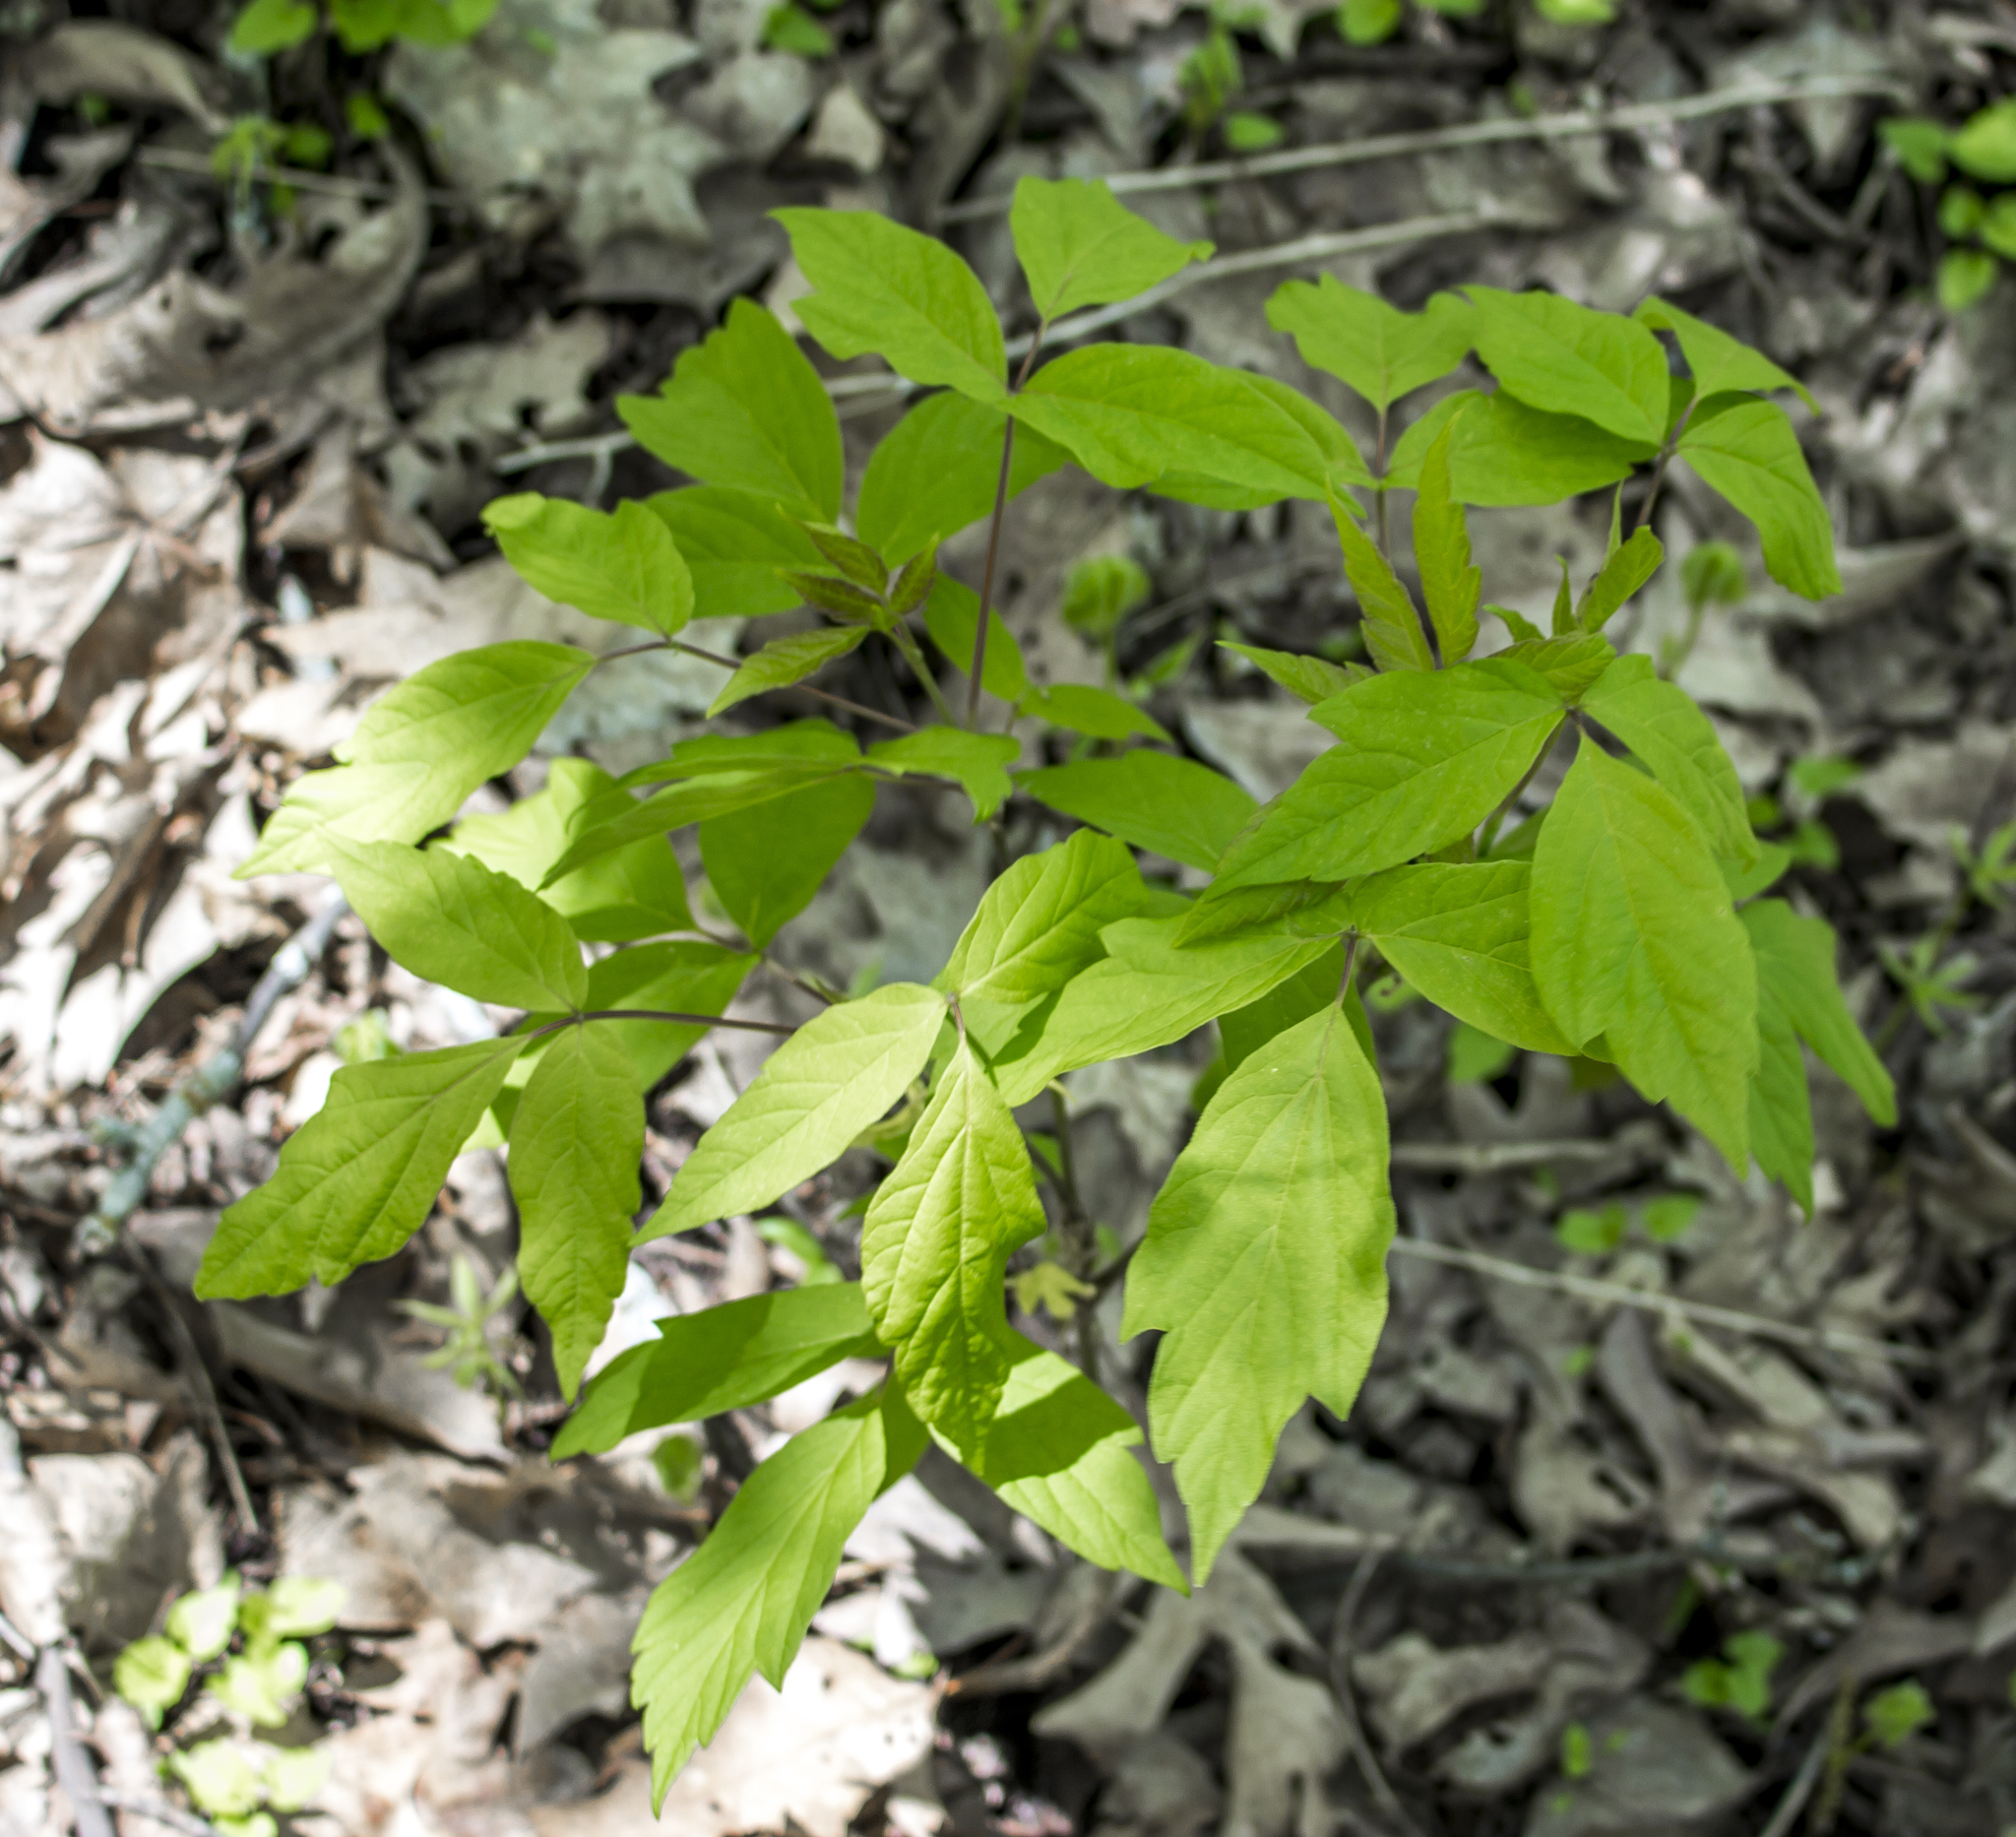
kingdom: Plantae
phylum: Tracheophyta
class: Magnoliopsida
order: Sapindales
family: Sapindaceae
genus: Acer
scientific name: Acer negundo
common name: Ashleaf maple
